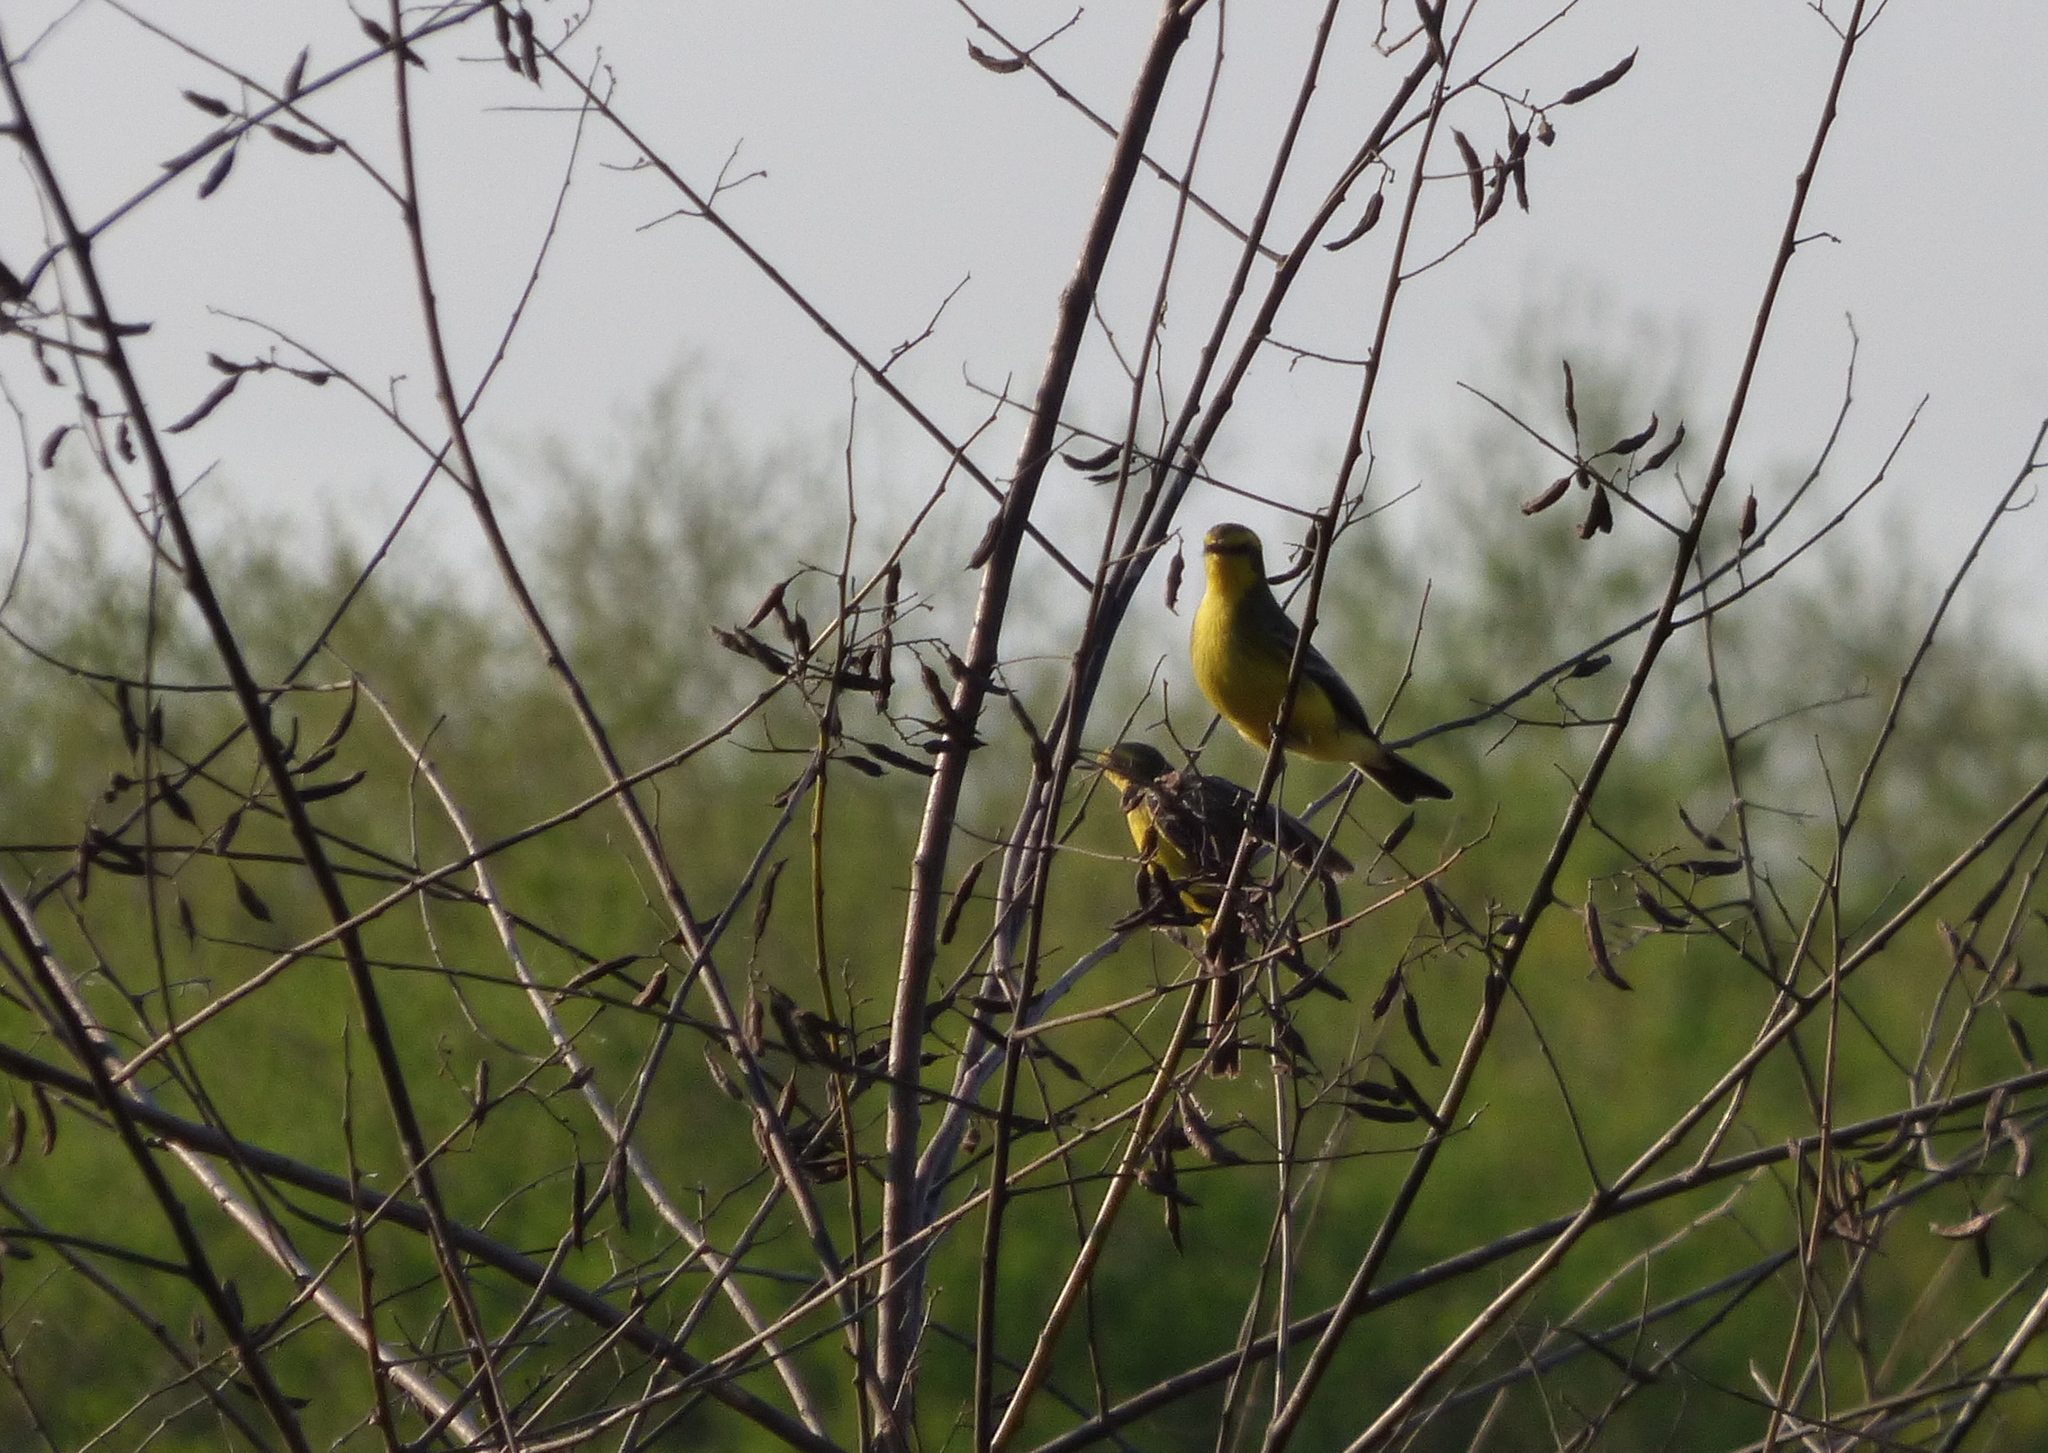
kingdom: Animalia
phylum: Chordata
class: Aves
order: Passeriformes
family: Tyrannidae
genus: Satrapa
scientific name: Satrapa icterophrys
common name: Yellow-browed tyrant
